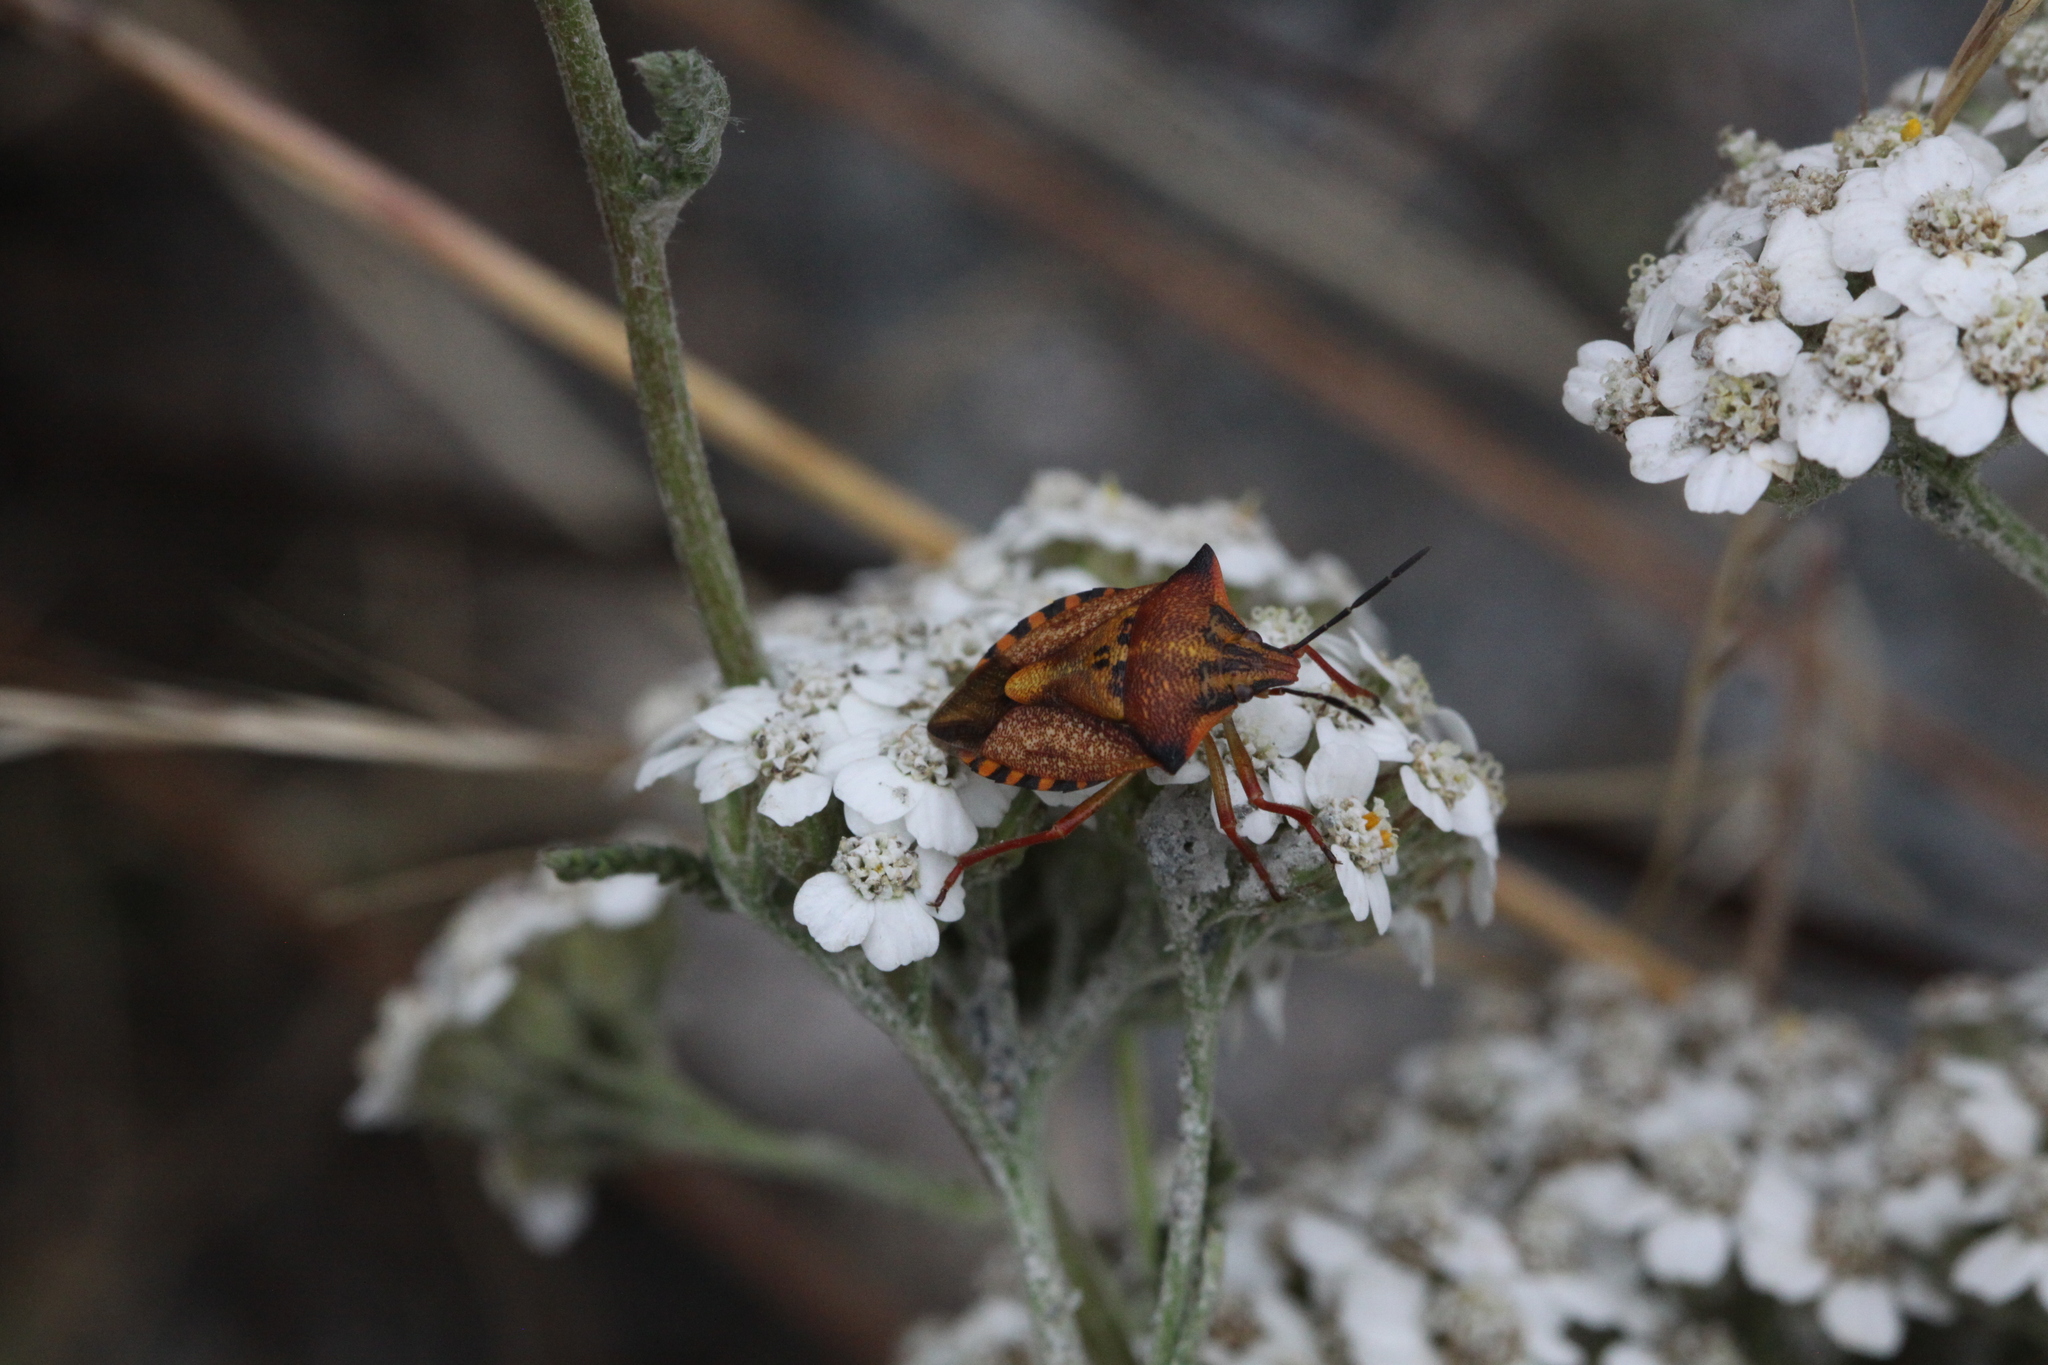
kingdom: Animalia
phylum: Arthropoda
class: Insecta
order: Hemiptera
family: Pentatomidae
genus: Carpocoris
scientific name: Carpocoris mediterraneus
